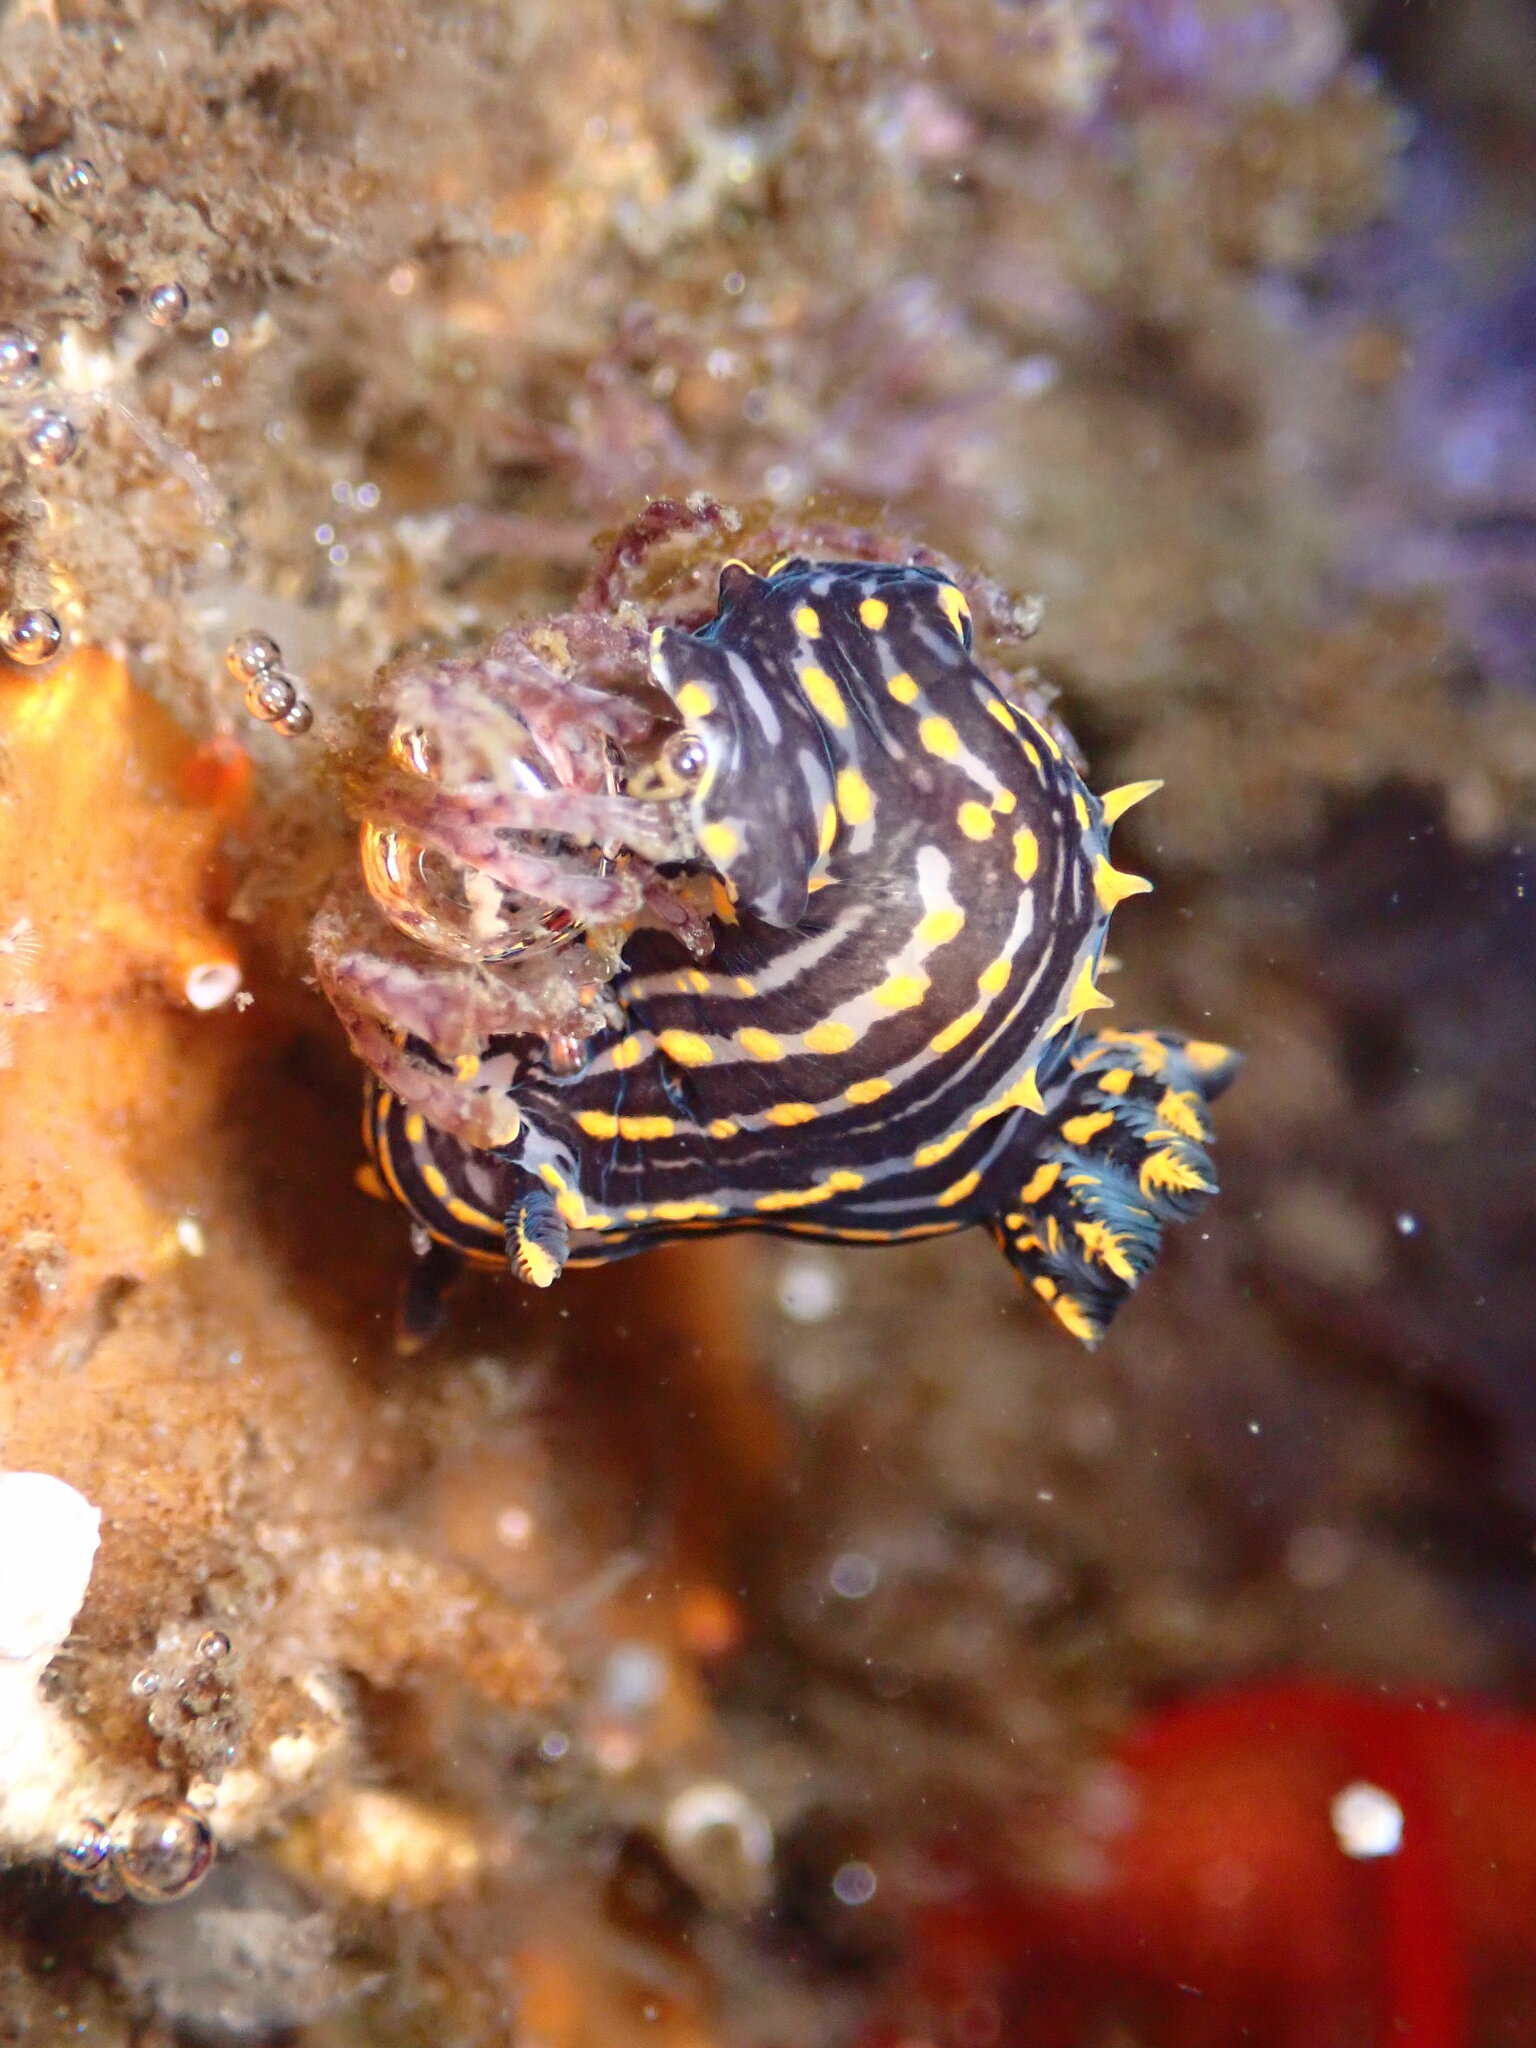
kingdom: Animalia
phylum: Mollusca
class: Gastropoda
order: Nudibranchia
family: Polyceridae
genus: Polycera
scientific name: Polycera atra
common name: Orange-spike polycera
